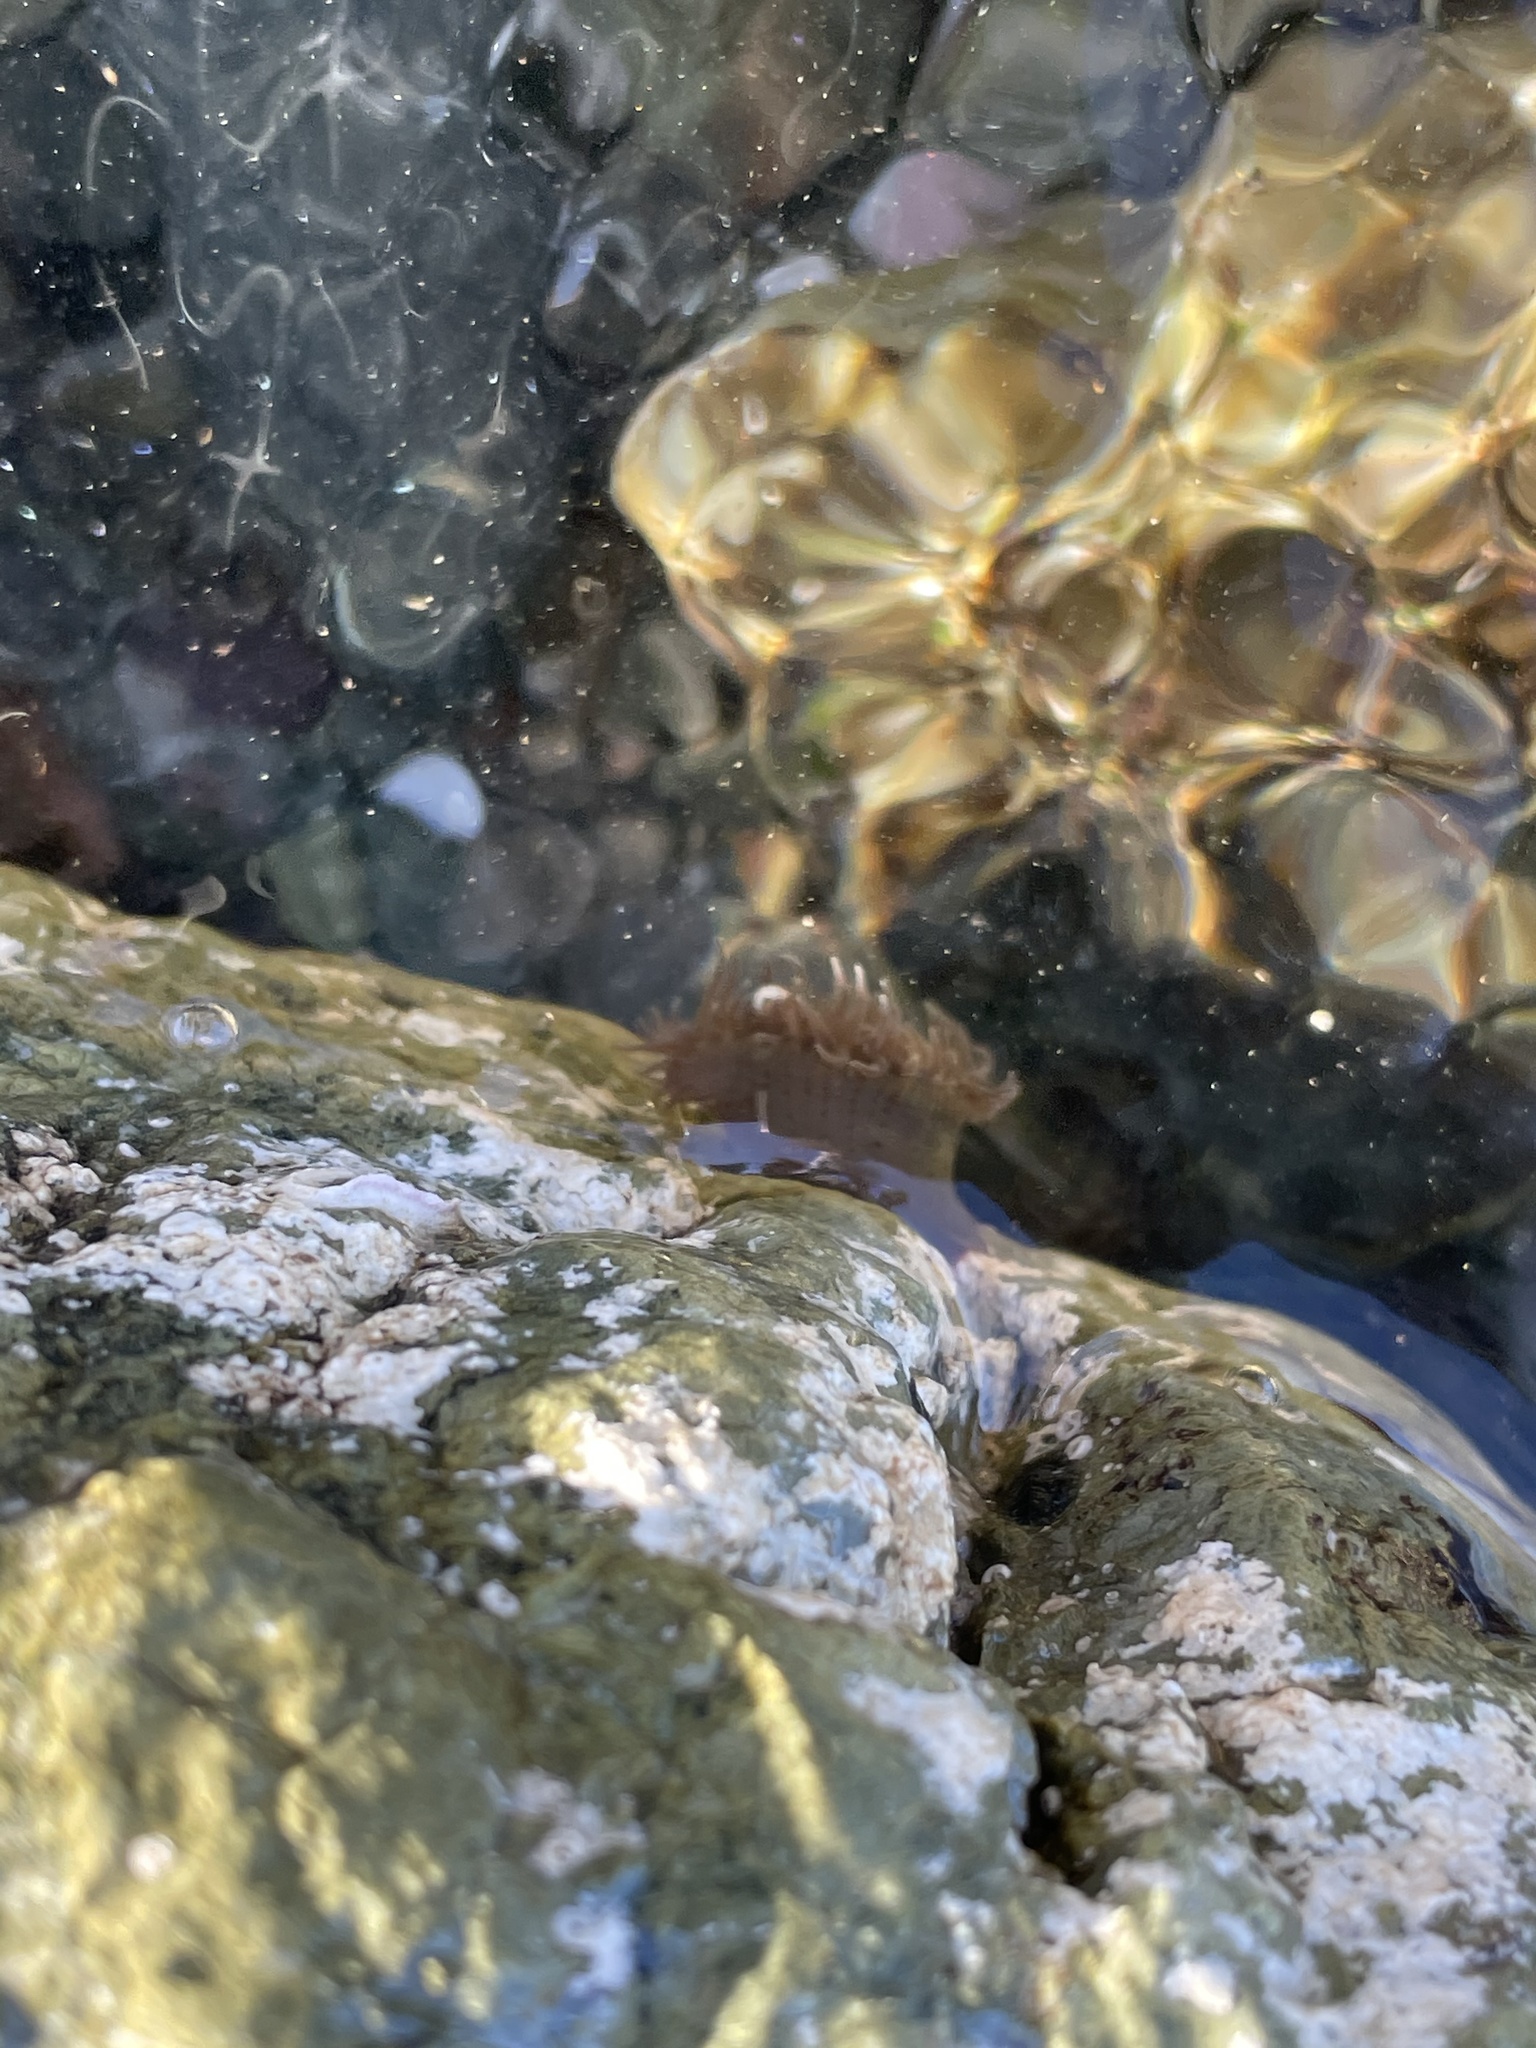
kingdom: Animalia
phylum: Cnidaria
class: Anthozoa
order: Actiniaria
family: Actiniidae
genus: Anthopleura
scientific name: Anthopleura mariae
